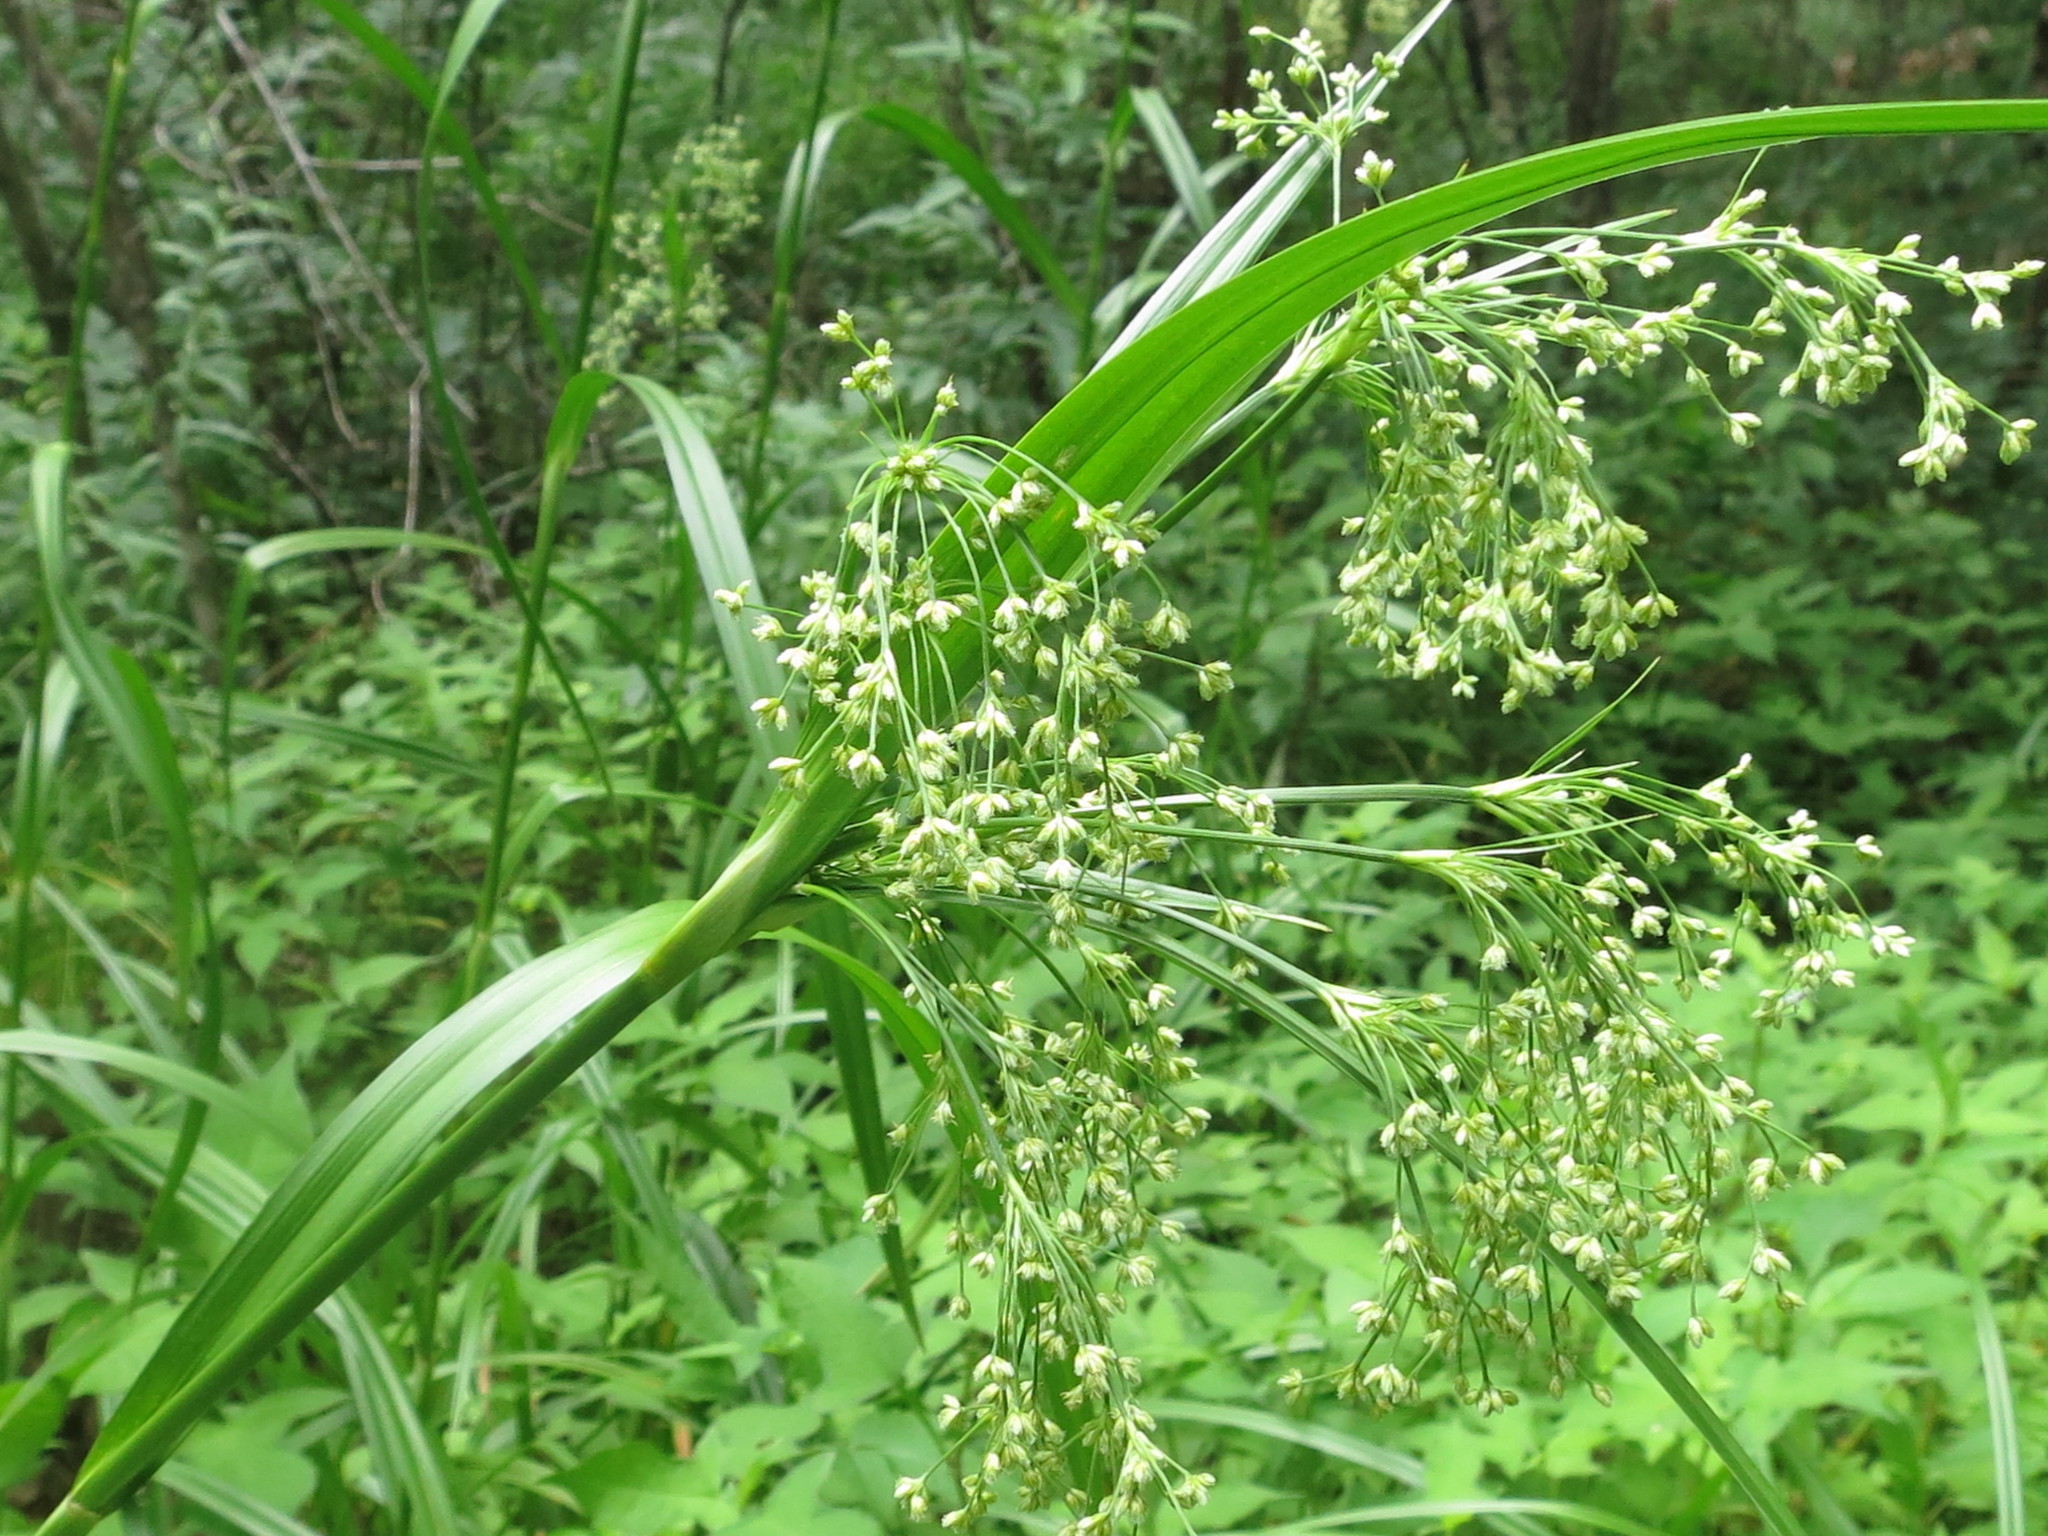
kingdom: Plantae
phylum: Tracheophyta
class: Liliopsida
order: Poales
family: Cyperaceae
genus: Scirpus
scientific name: Scirpus lushanensis
